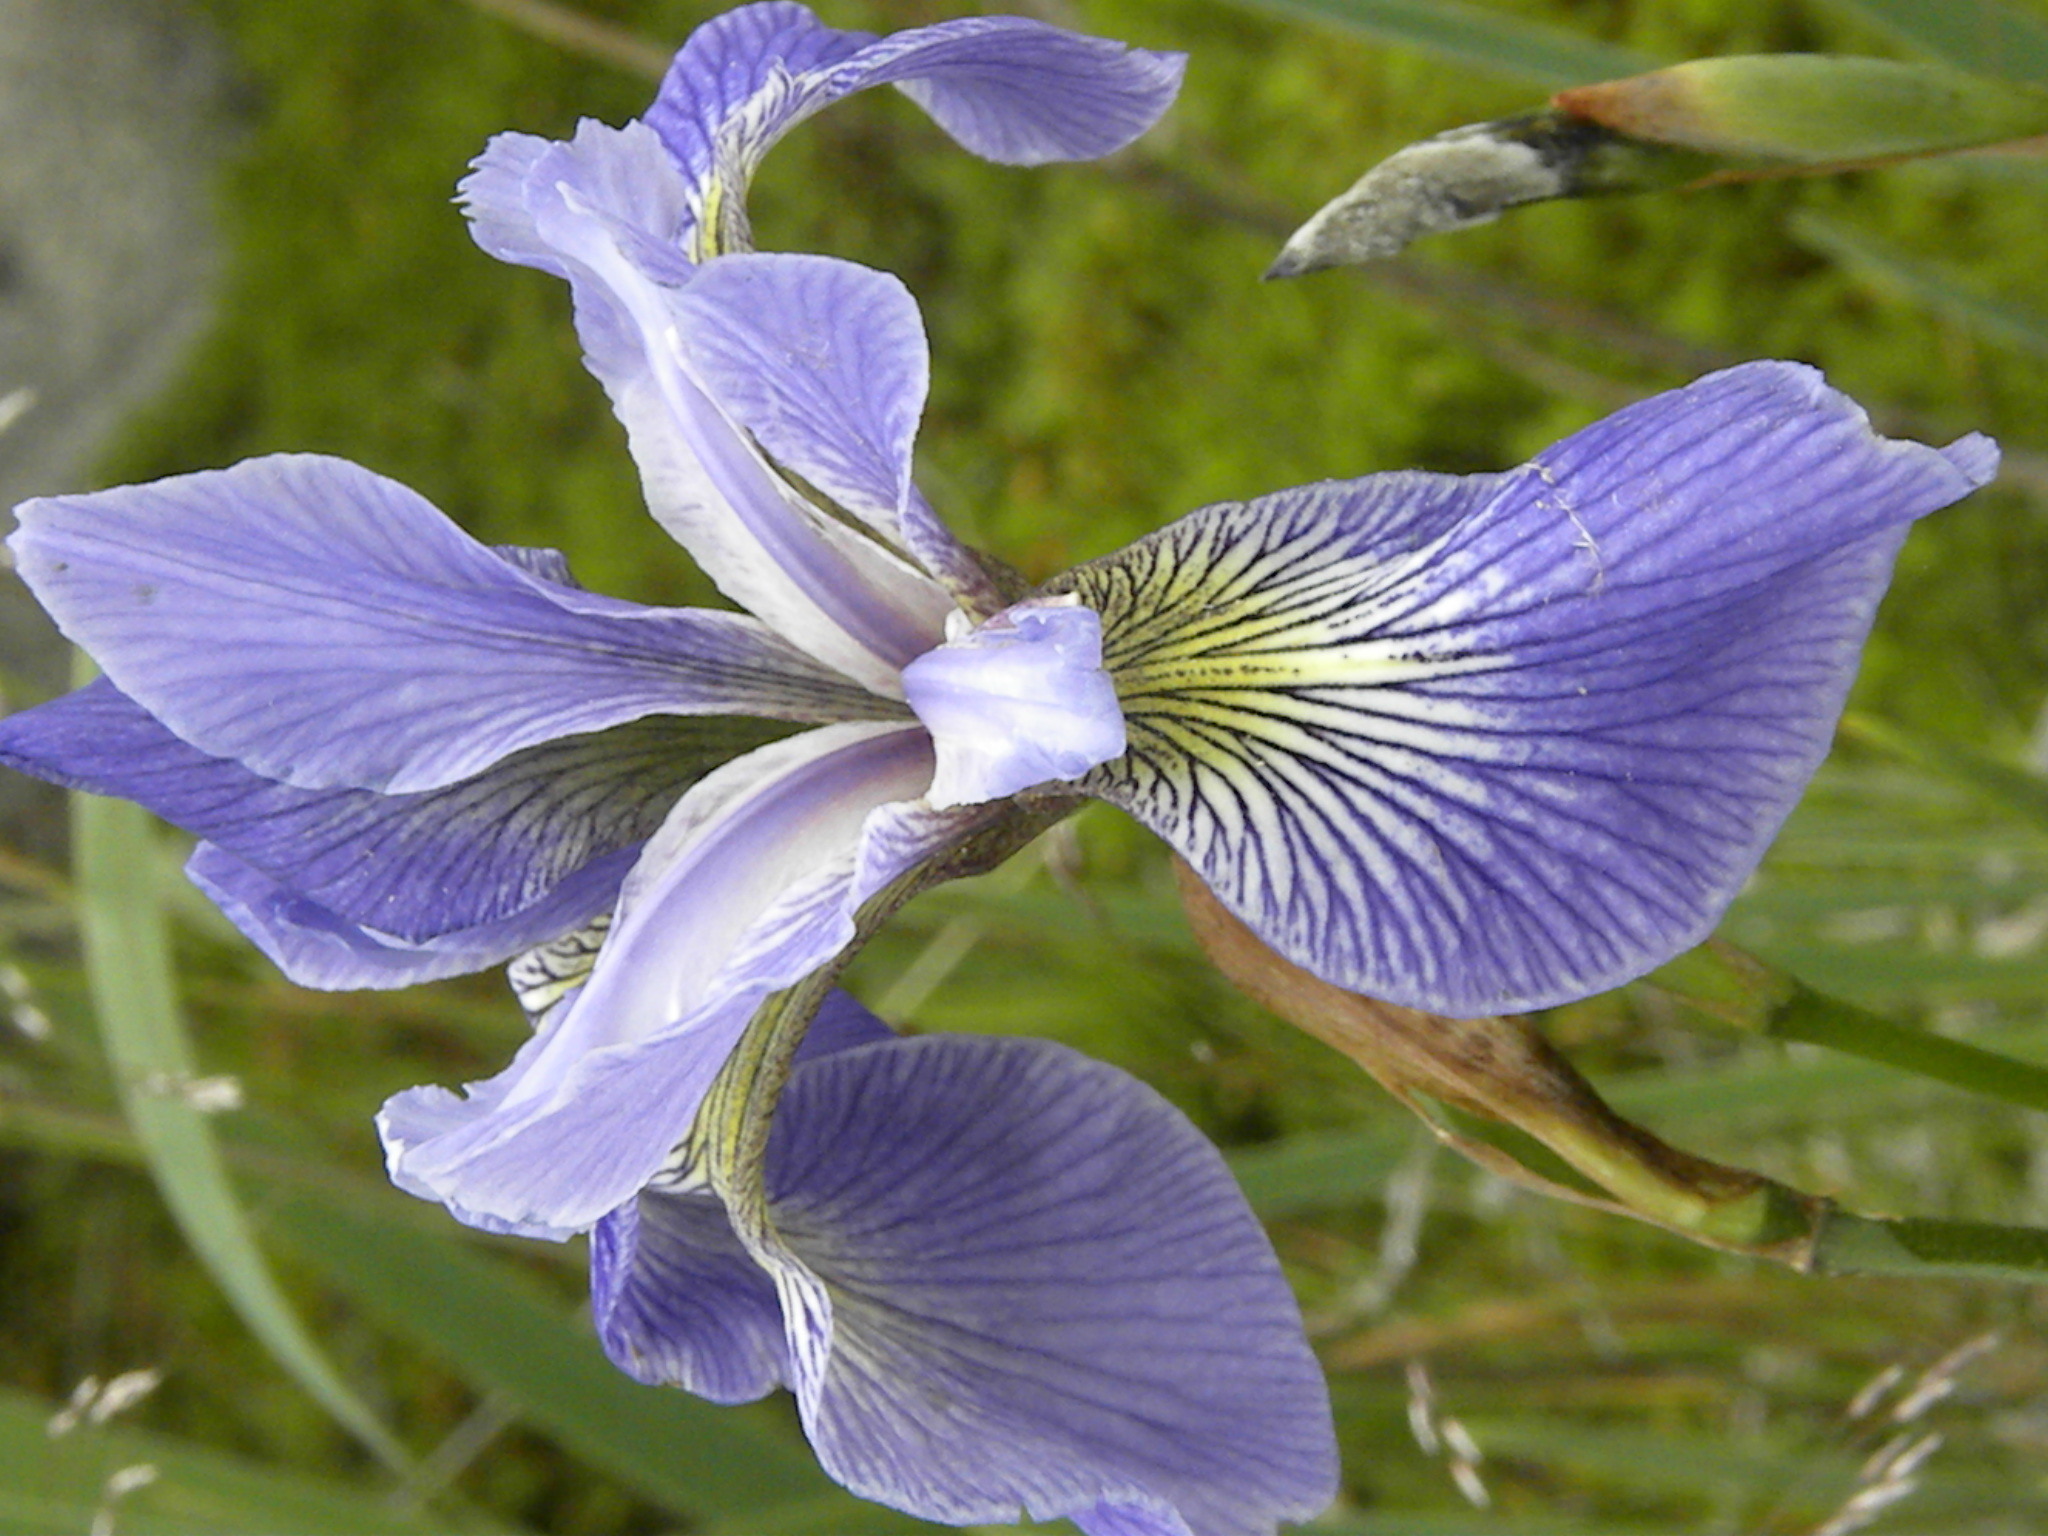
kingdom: Plantae
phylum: Tracheophyta
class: Liliopsida
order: Asparagales
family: Iridaceae
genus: Iris
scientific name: Iris versicolor
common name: Purple iris
